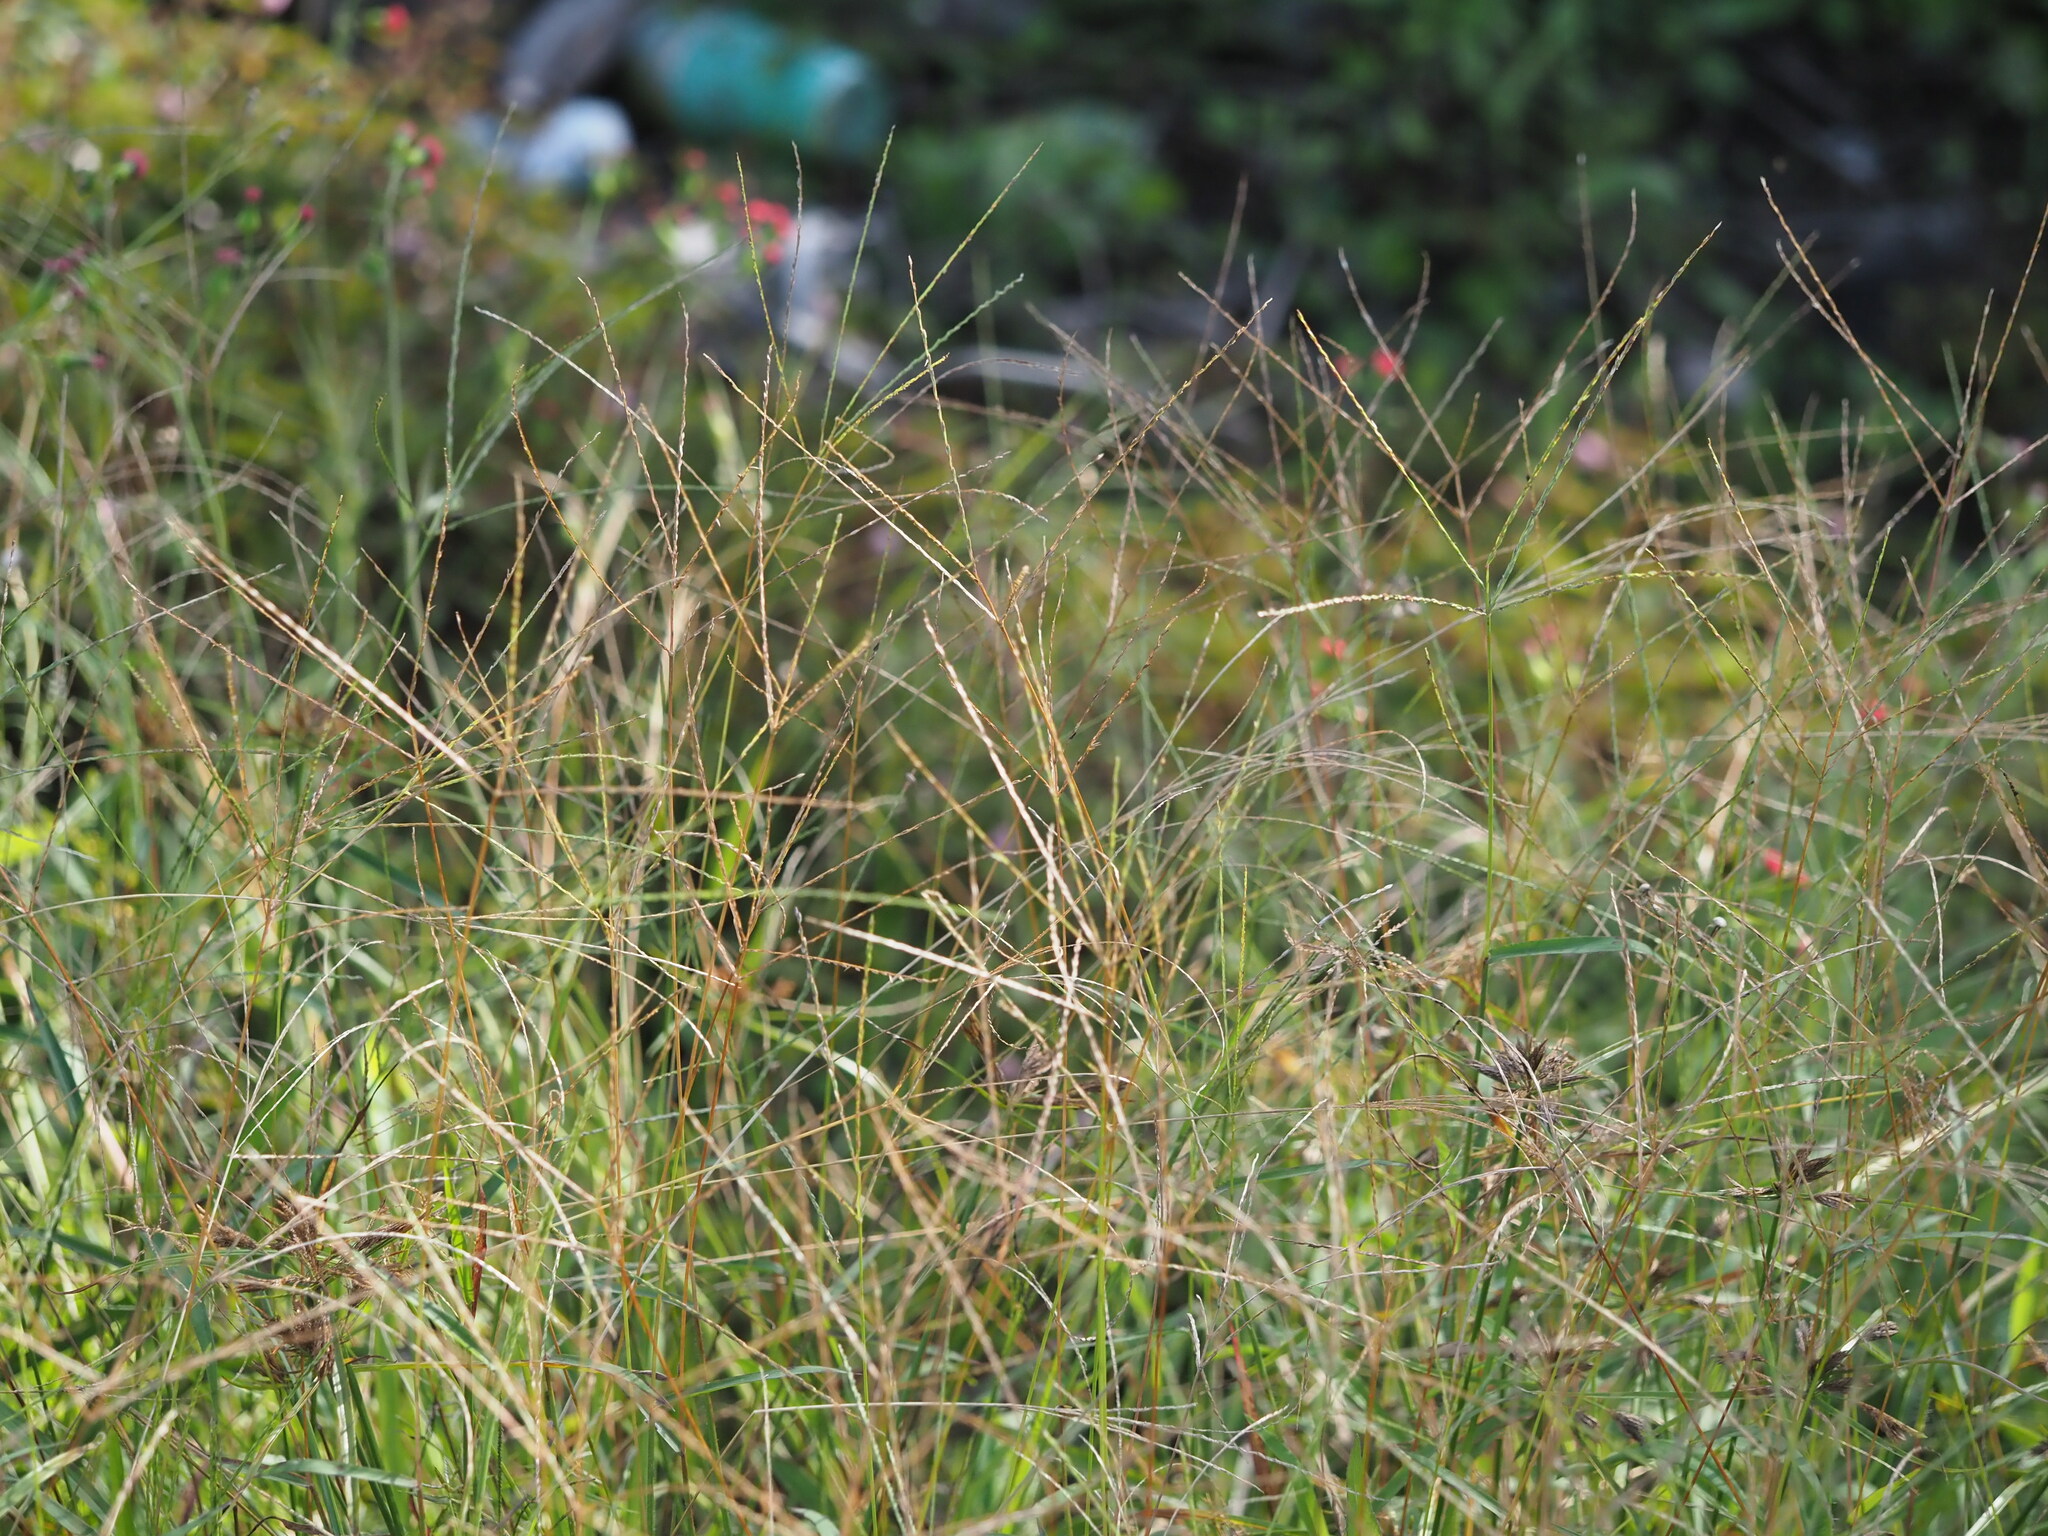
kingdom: Plantae
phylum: Tracheophyta
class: Liliopsida
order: Poales
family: Poaceae
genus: Digitaria
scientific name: Digitaria ciliaris
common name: Tropical finger-grass
